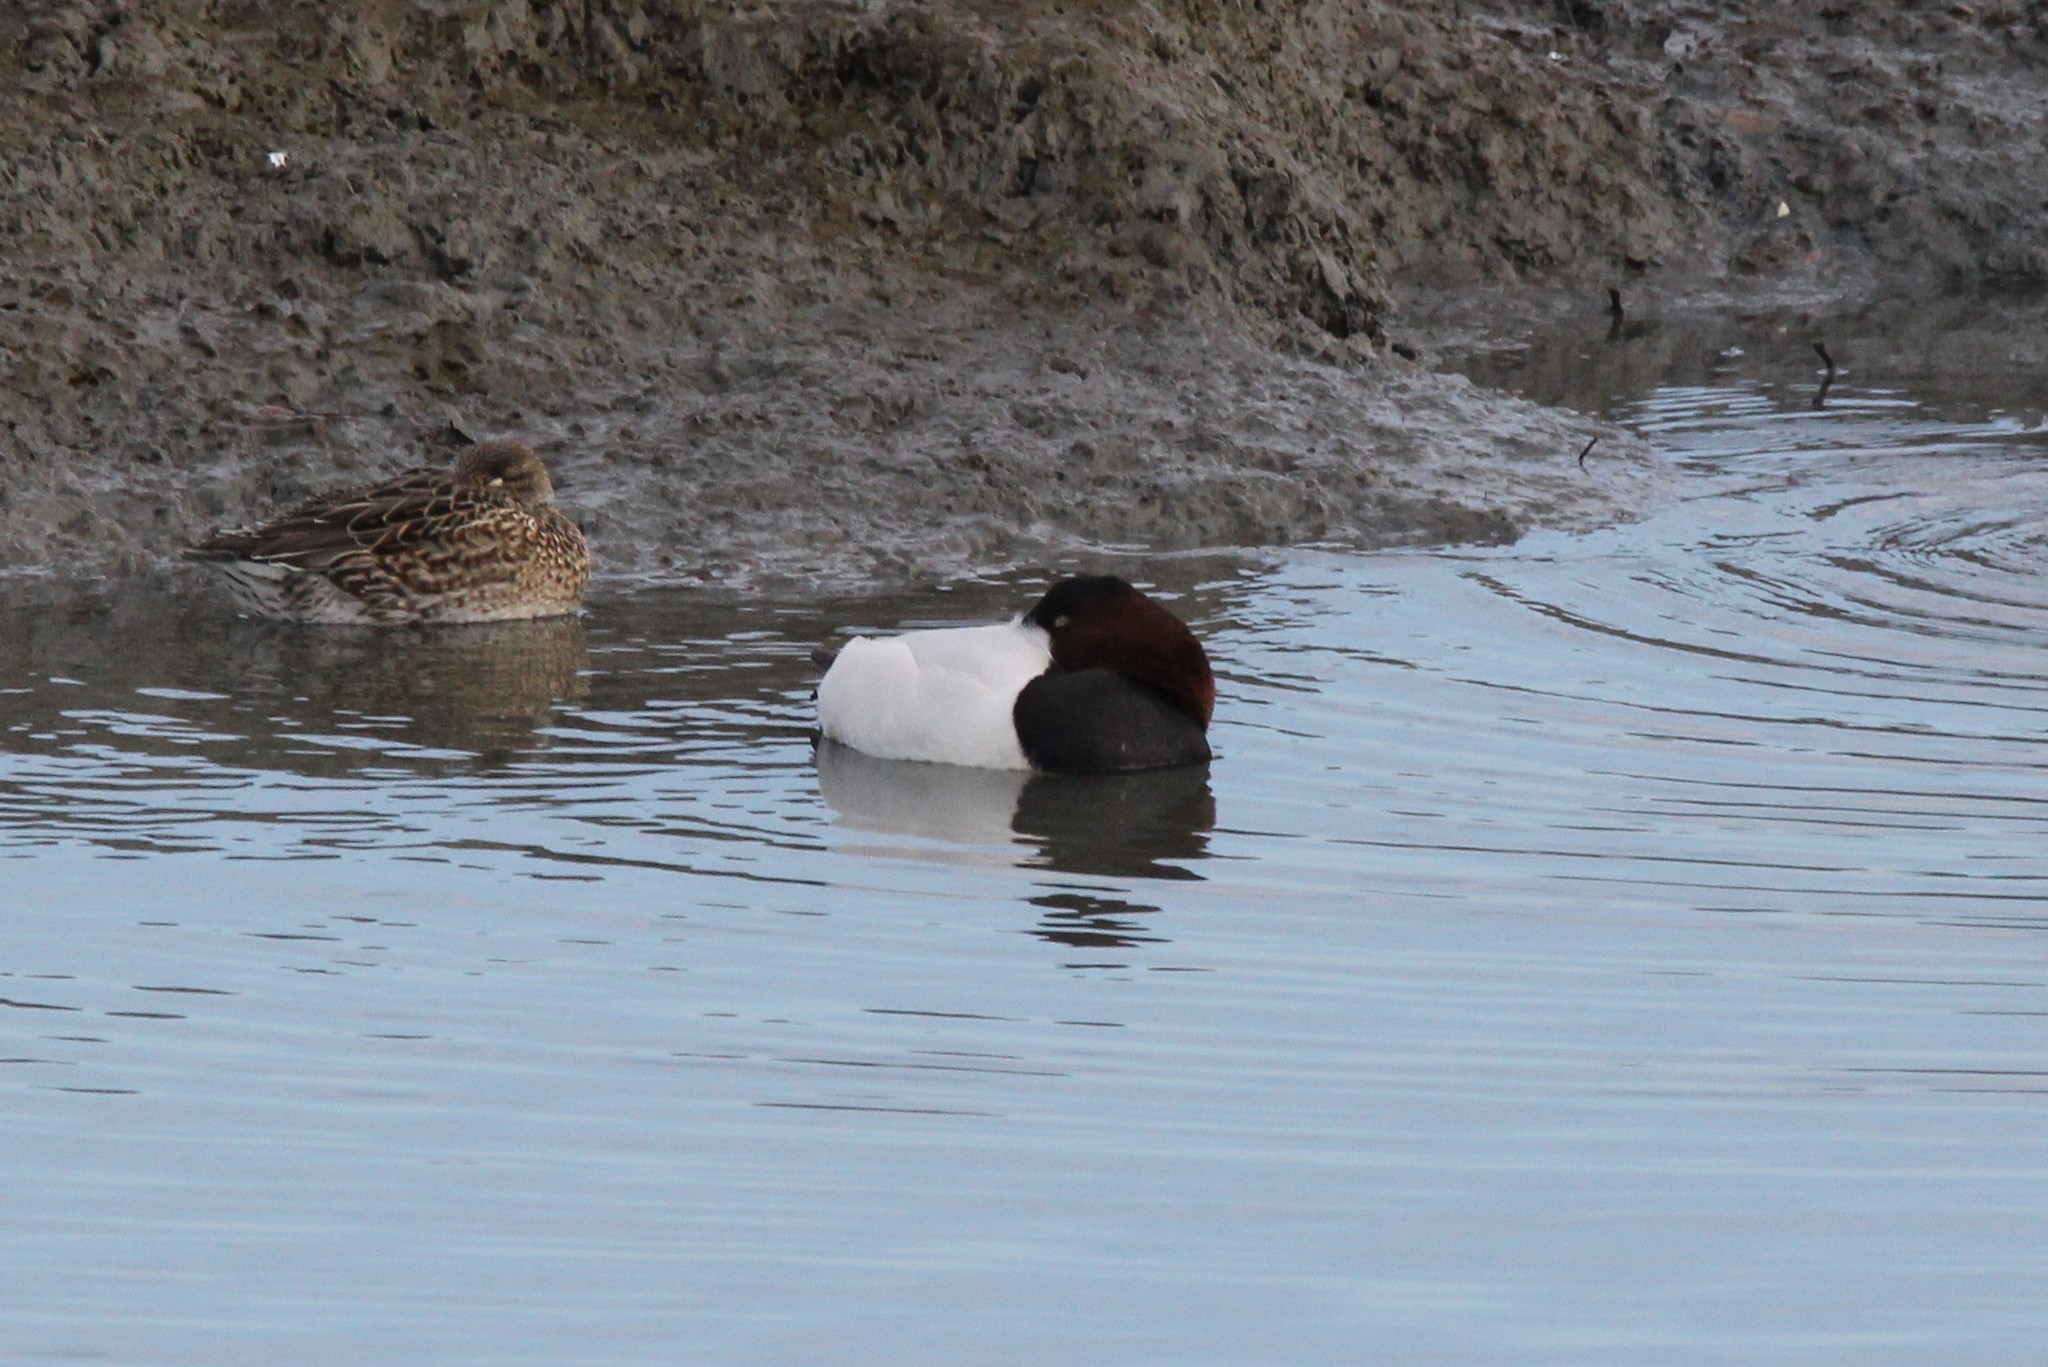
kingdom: Animalia
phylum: Chordata
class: Aves
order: Anseriformes
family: Anatidae
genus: Aythya
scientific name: Aythya valisineria
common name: Canvasback
